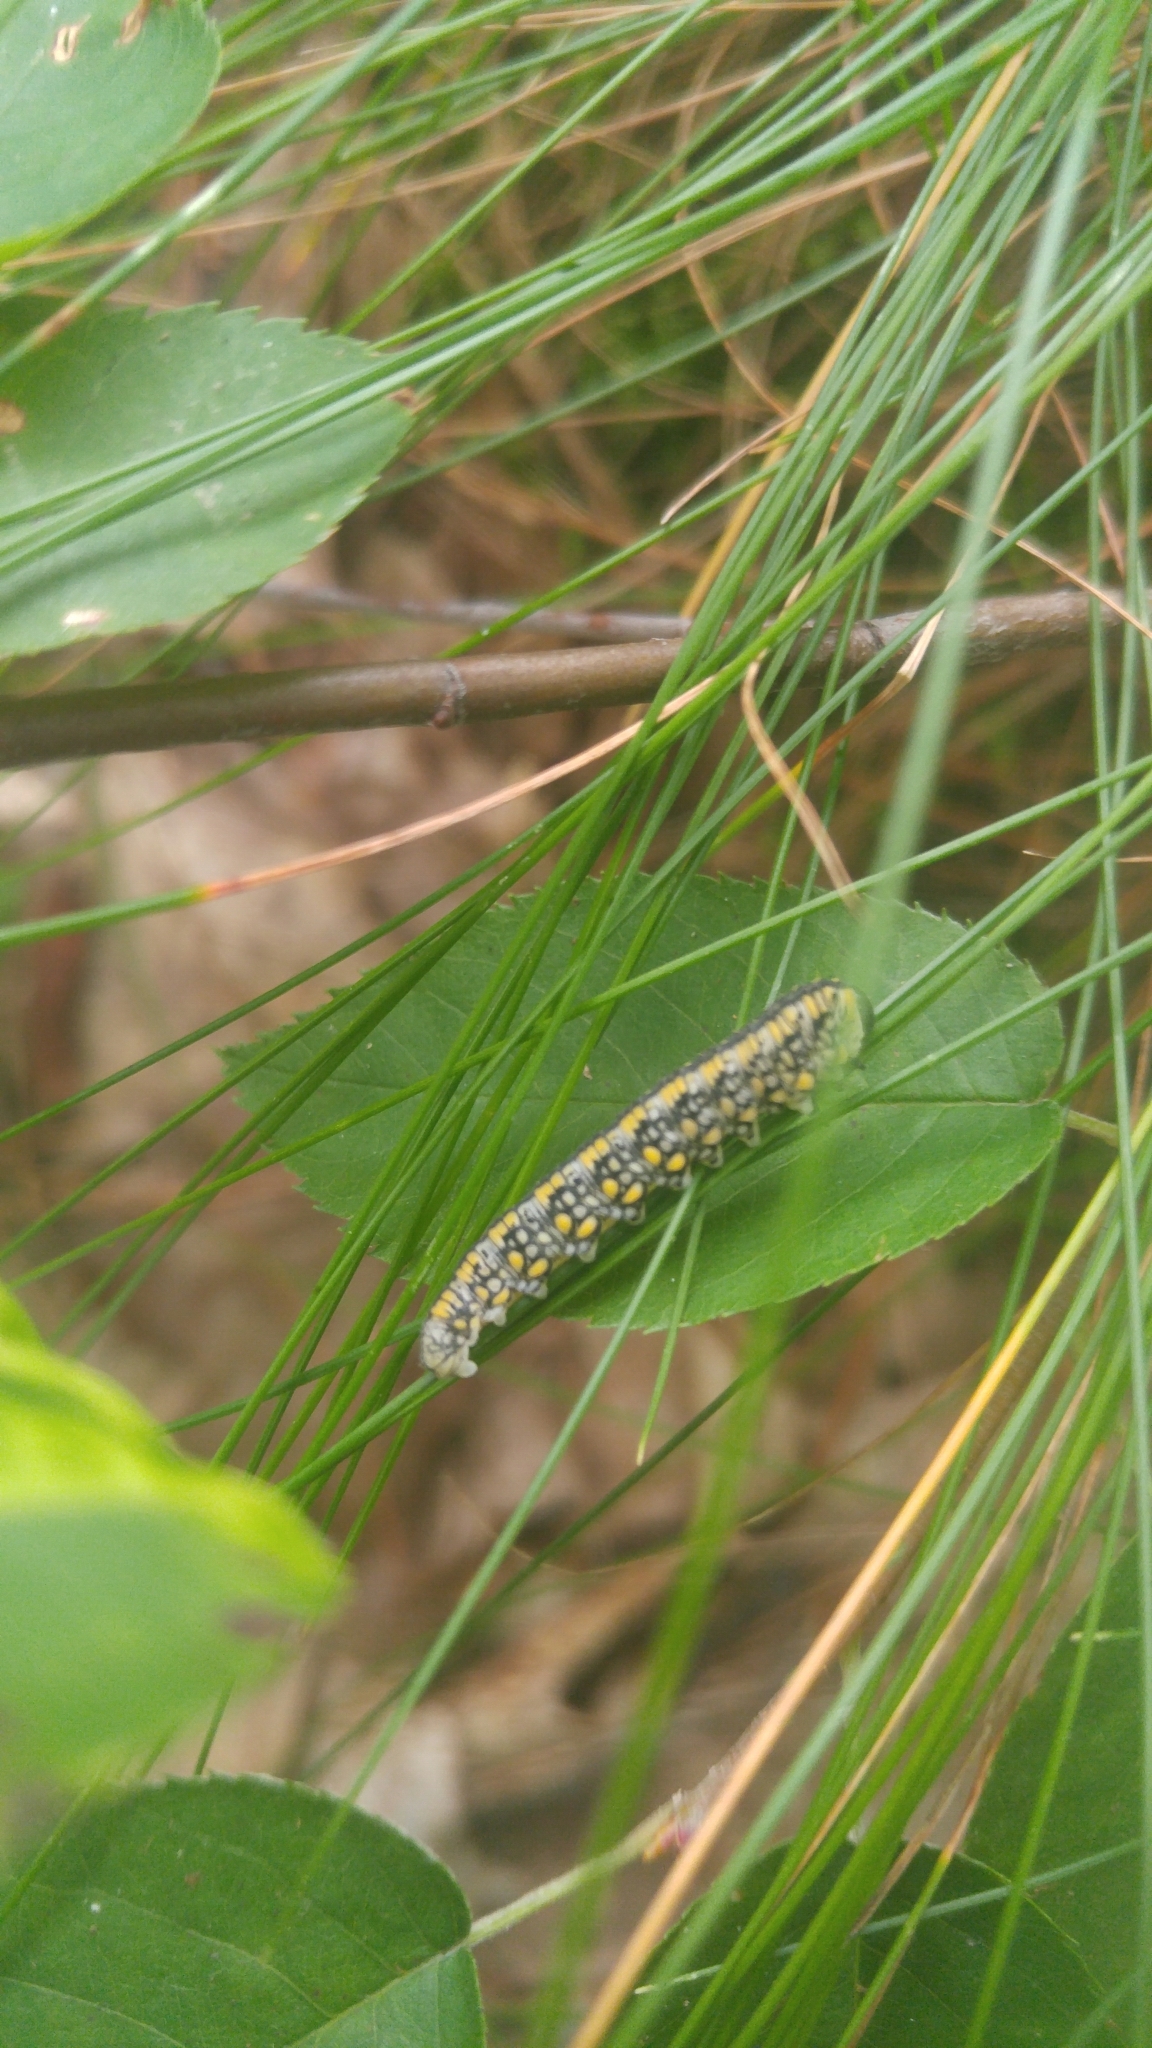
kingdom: Animalia
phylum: Arthropoda
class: Insecta
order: Hymenoptera
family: Diprionidae
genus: Diprion
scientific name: Diprion similis
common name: Pine sawfly
